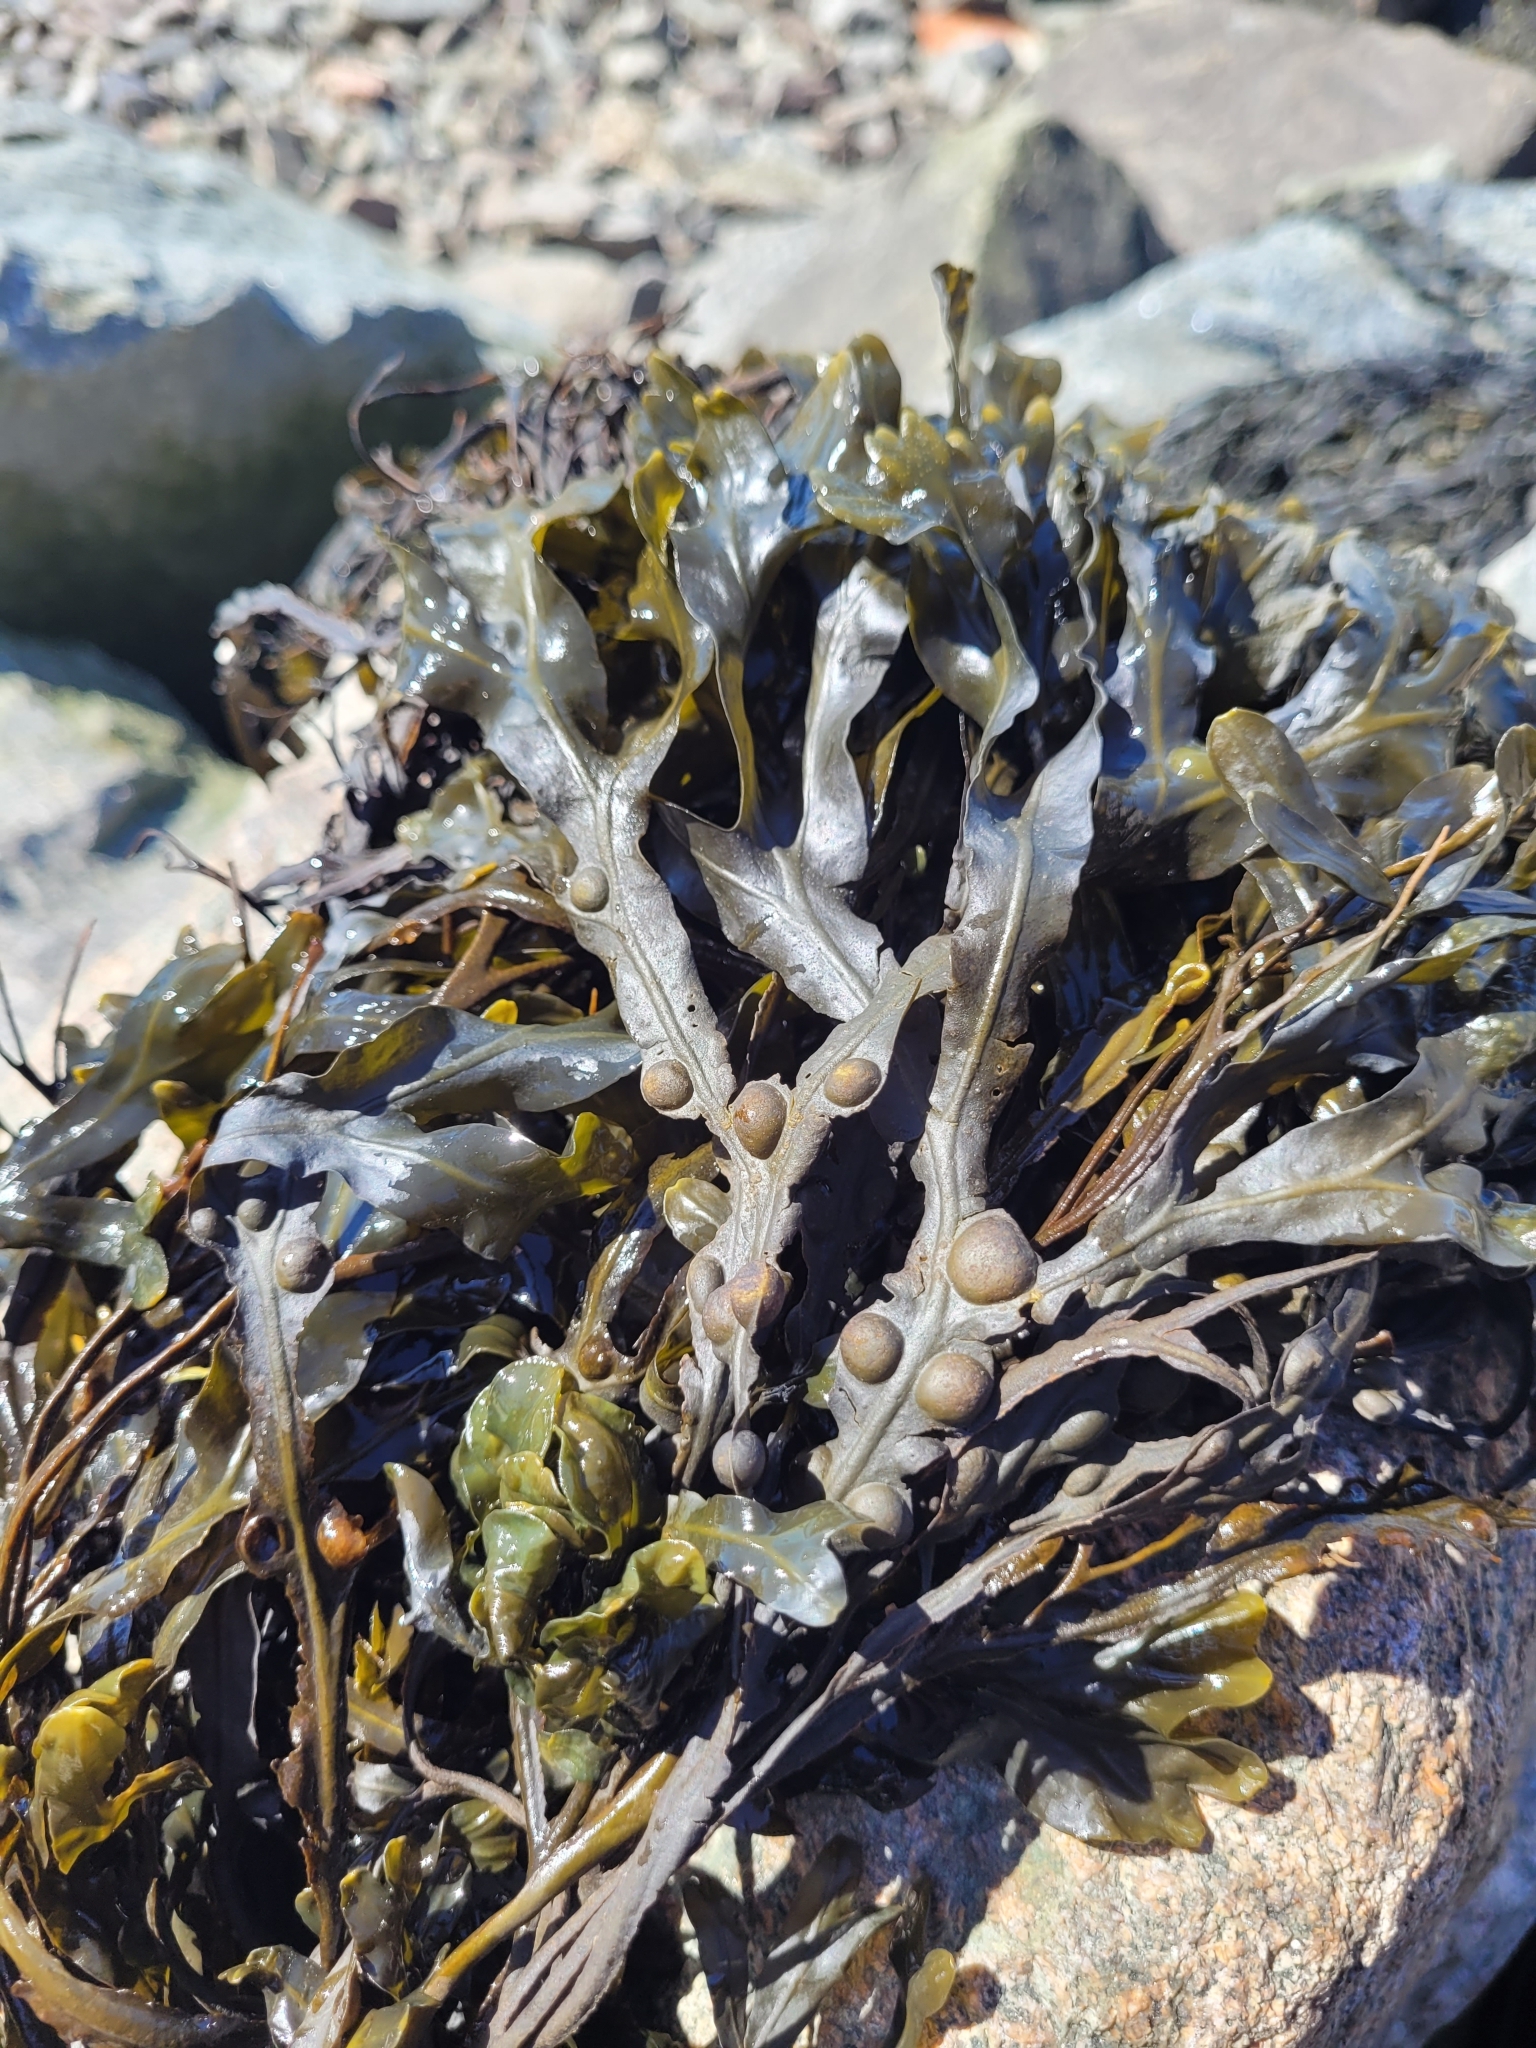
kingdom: Chromista
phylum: Ochrophyta
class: Phaeophyceae
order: Fucales
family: Fucaceae
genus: Fucus
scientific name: Fucus vesiculosus
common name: Bladder wrack
